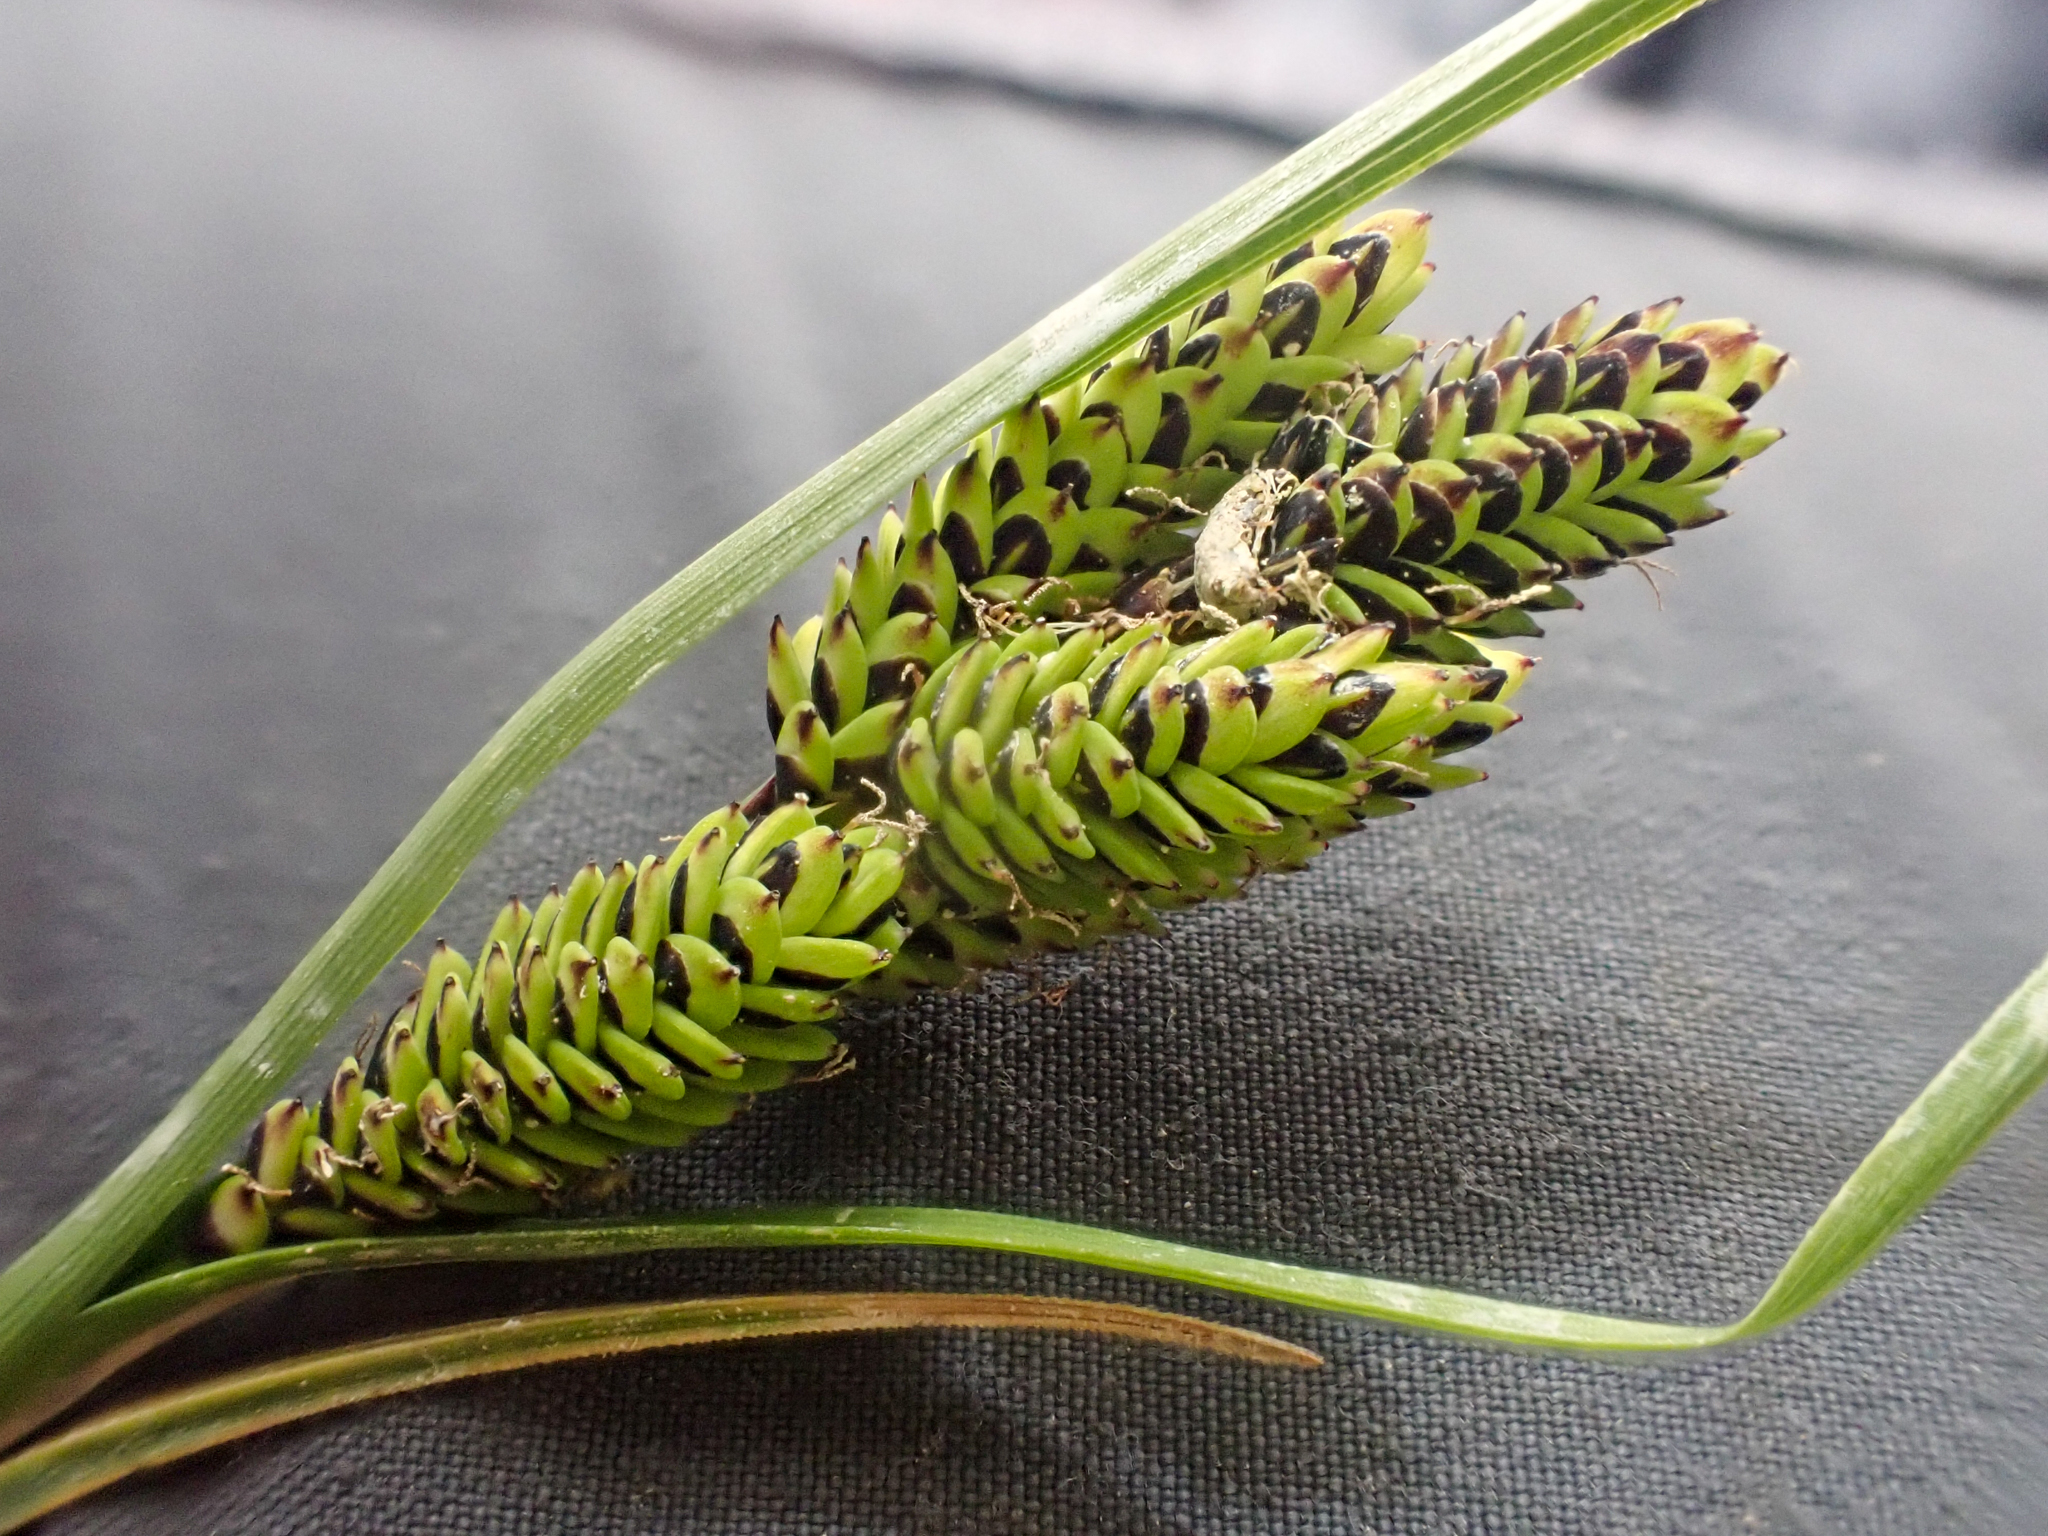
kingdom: Plantae
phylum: Tracheophyta
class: Liliopsida
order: Poales
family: Cyperaceae
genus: Carex
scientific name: Carex plectocarpa
